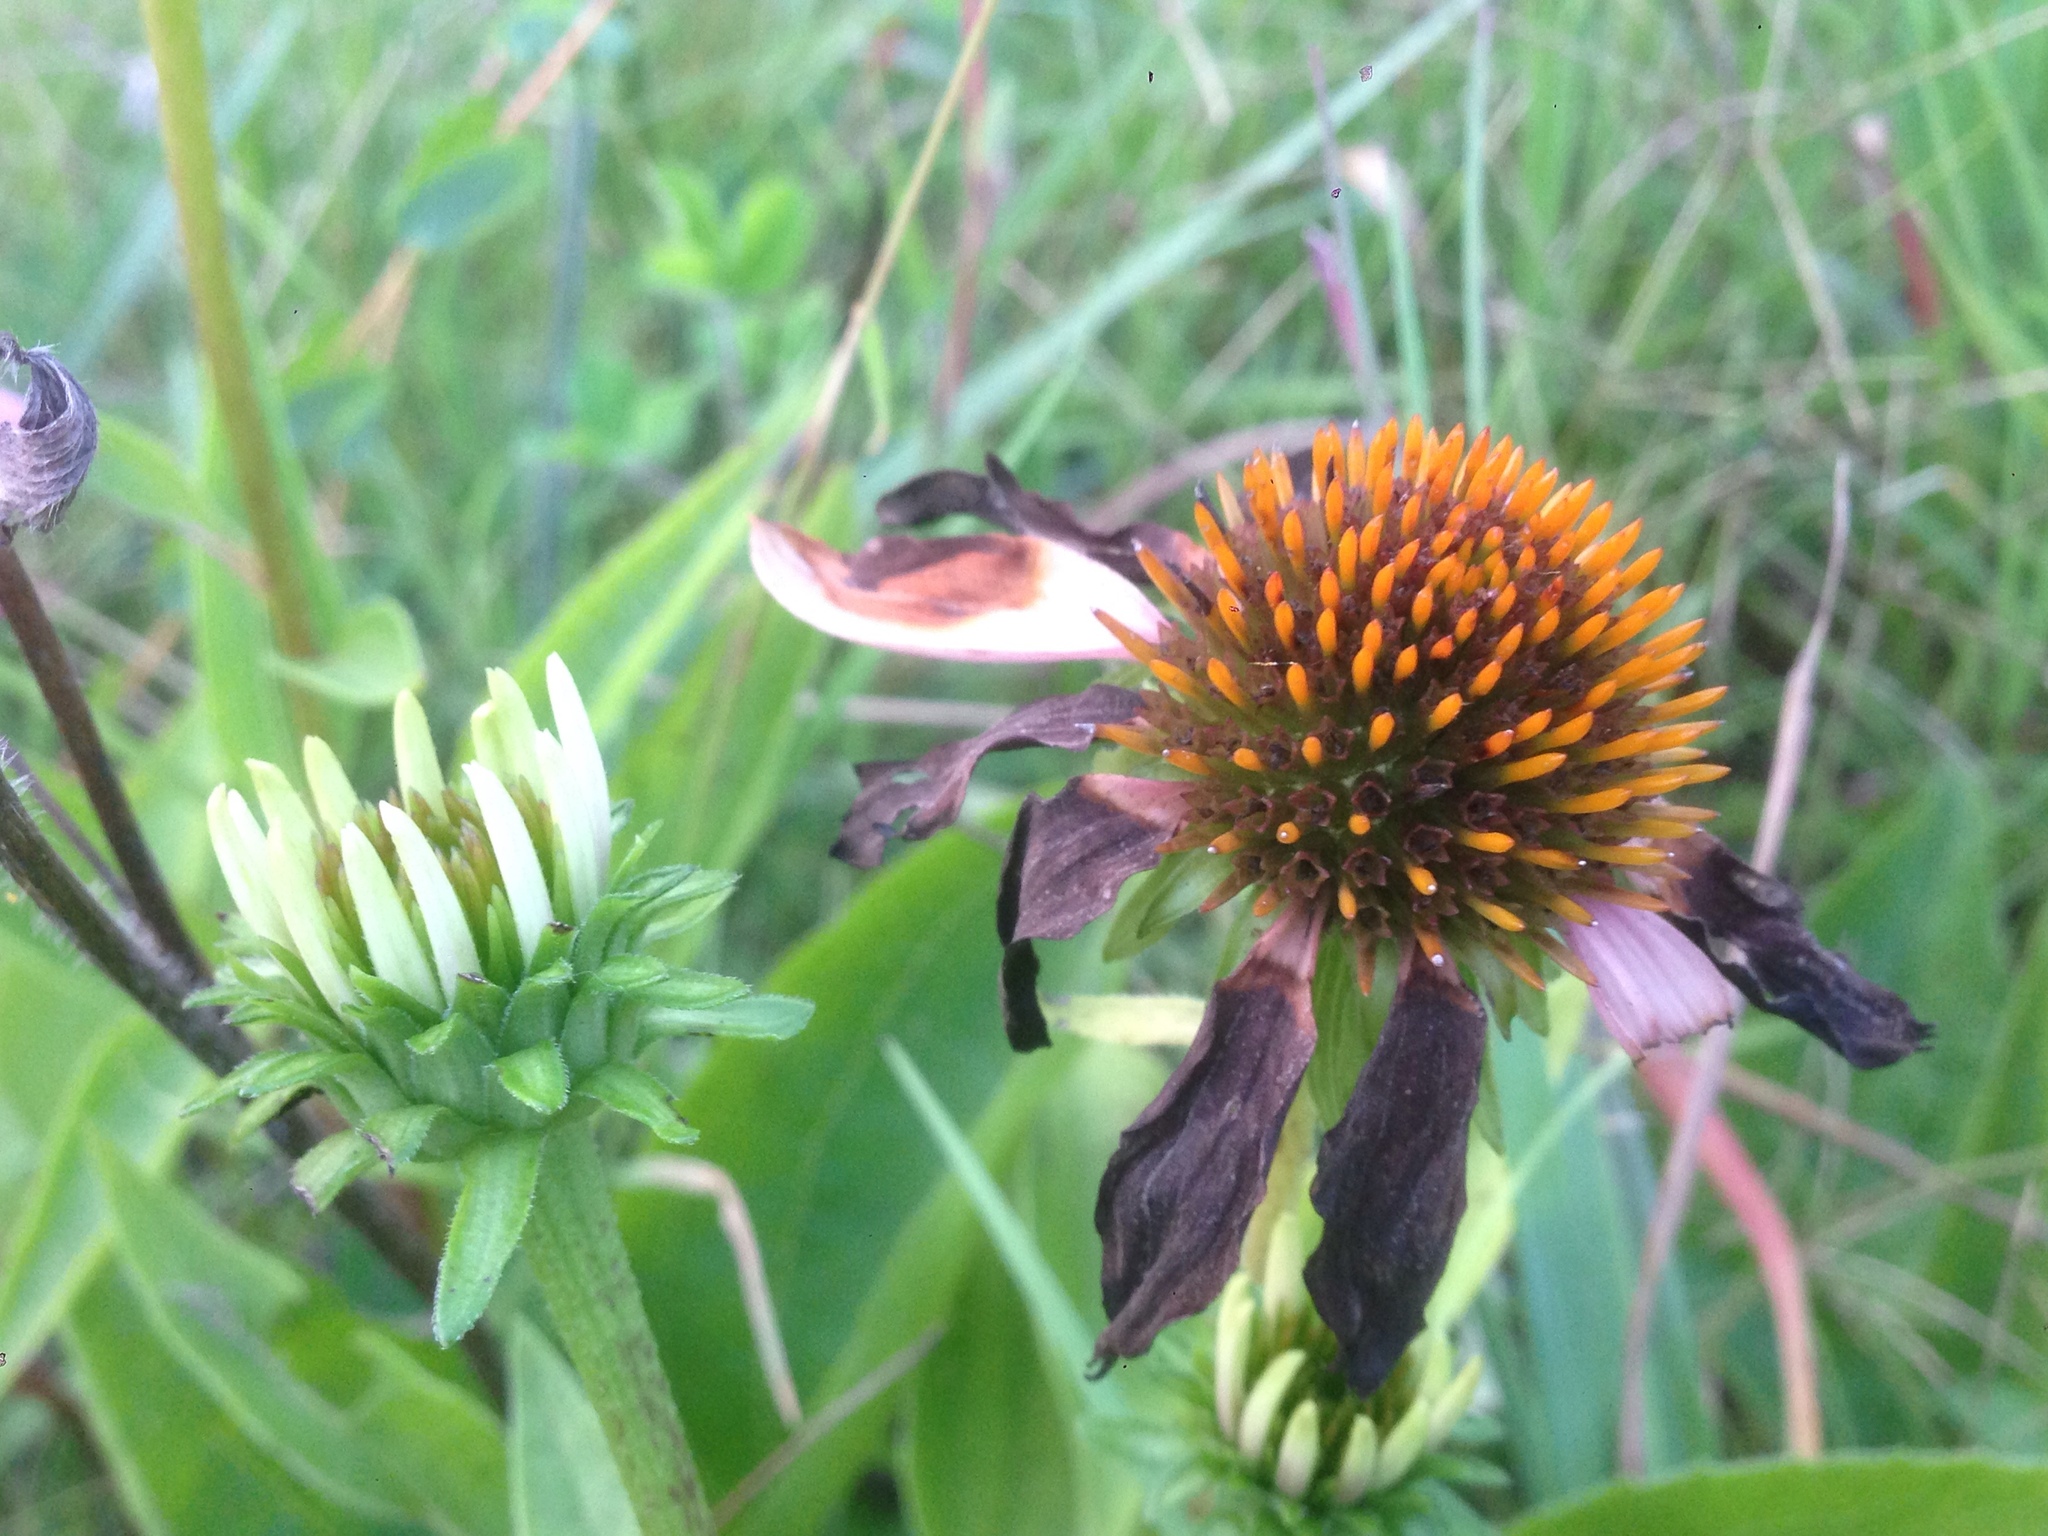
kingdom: Plantae
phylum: Tracheophyta
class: Magnoliopsida
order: Asterales
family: Asteraceae
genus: Echinacea
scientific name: Echinacea purpurea
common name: Broad-leaved purple coneflower
